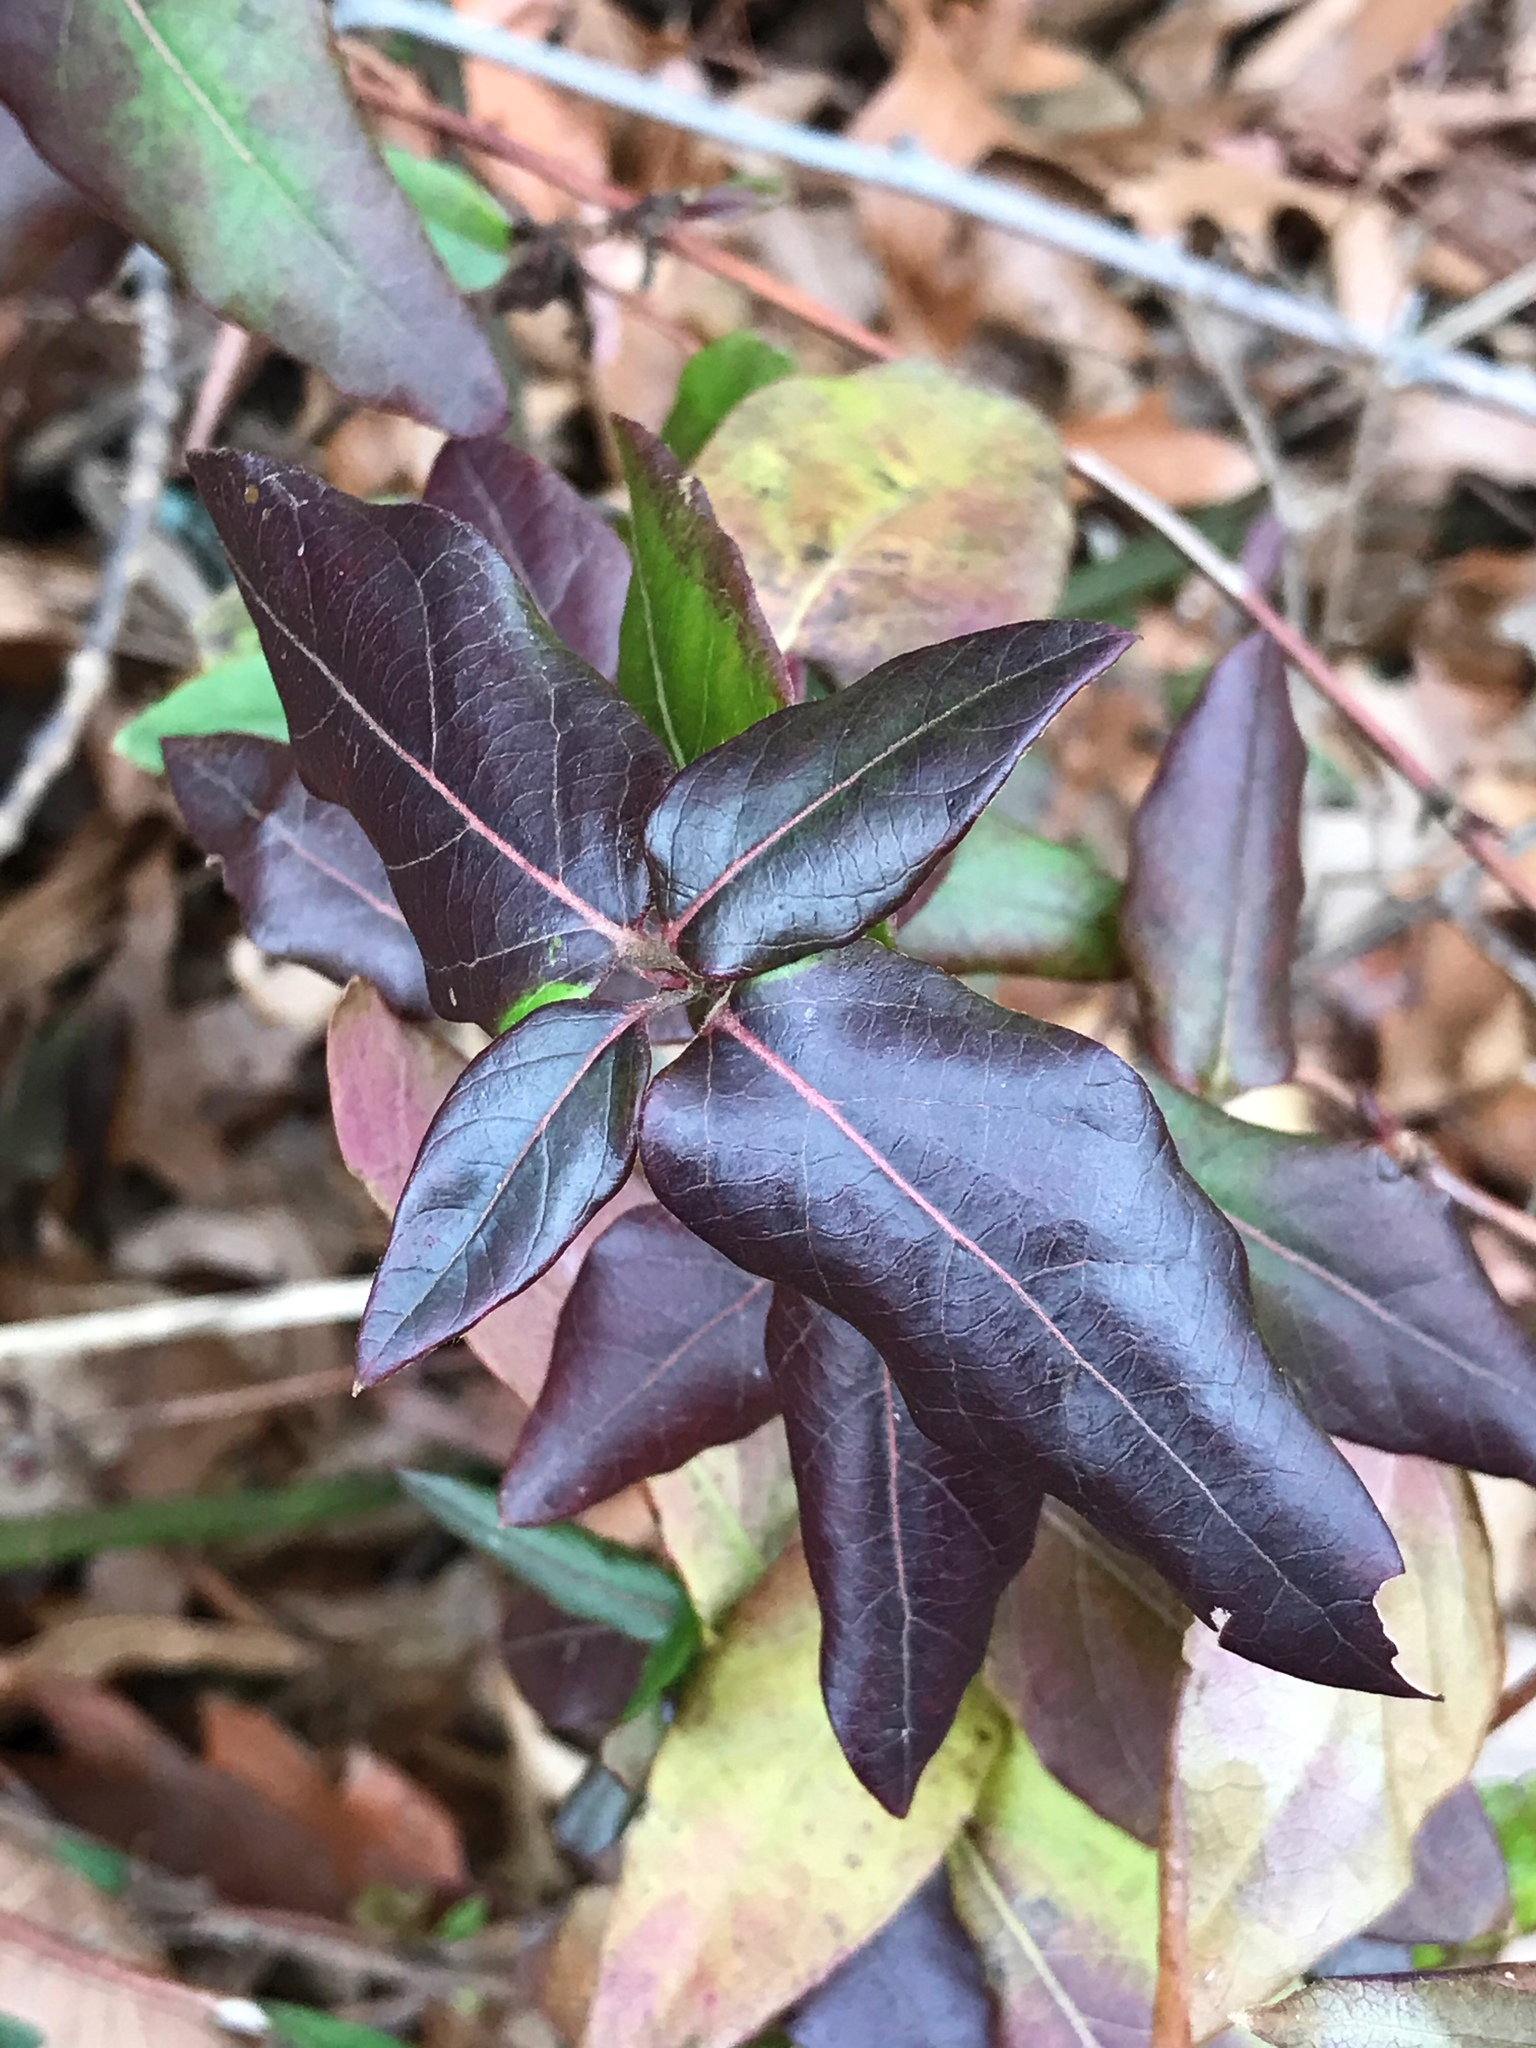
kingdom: Plantae
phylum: Tracheophyta
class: Magnoliopsida
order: Dipsacales
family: Caprifoliaceae
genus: Lonicera
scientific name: Lonicera japonica
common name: Japanese honeysuckle
